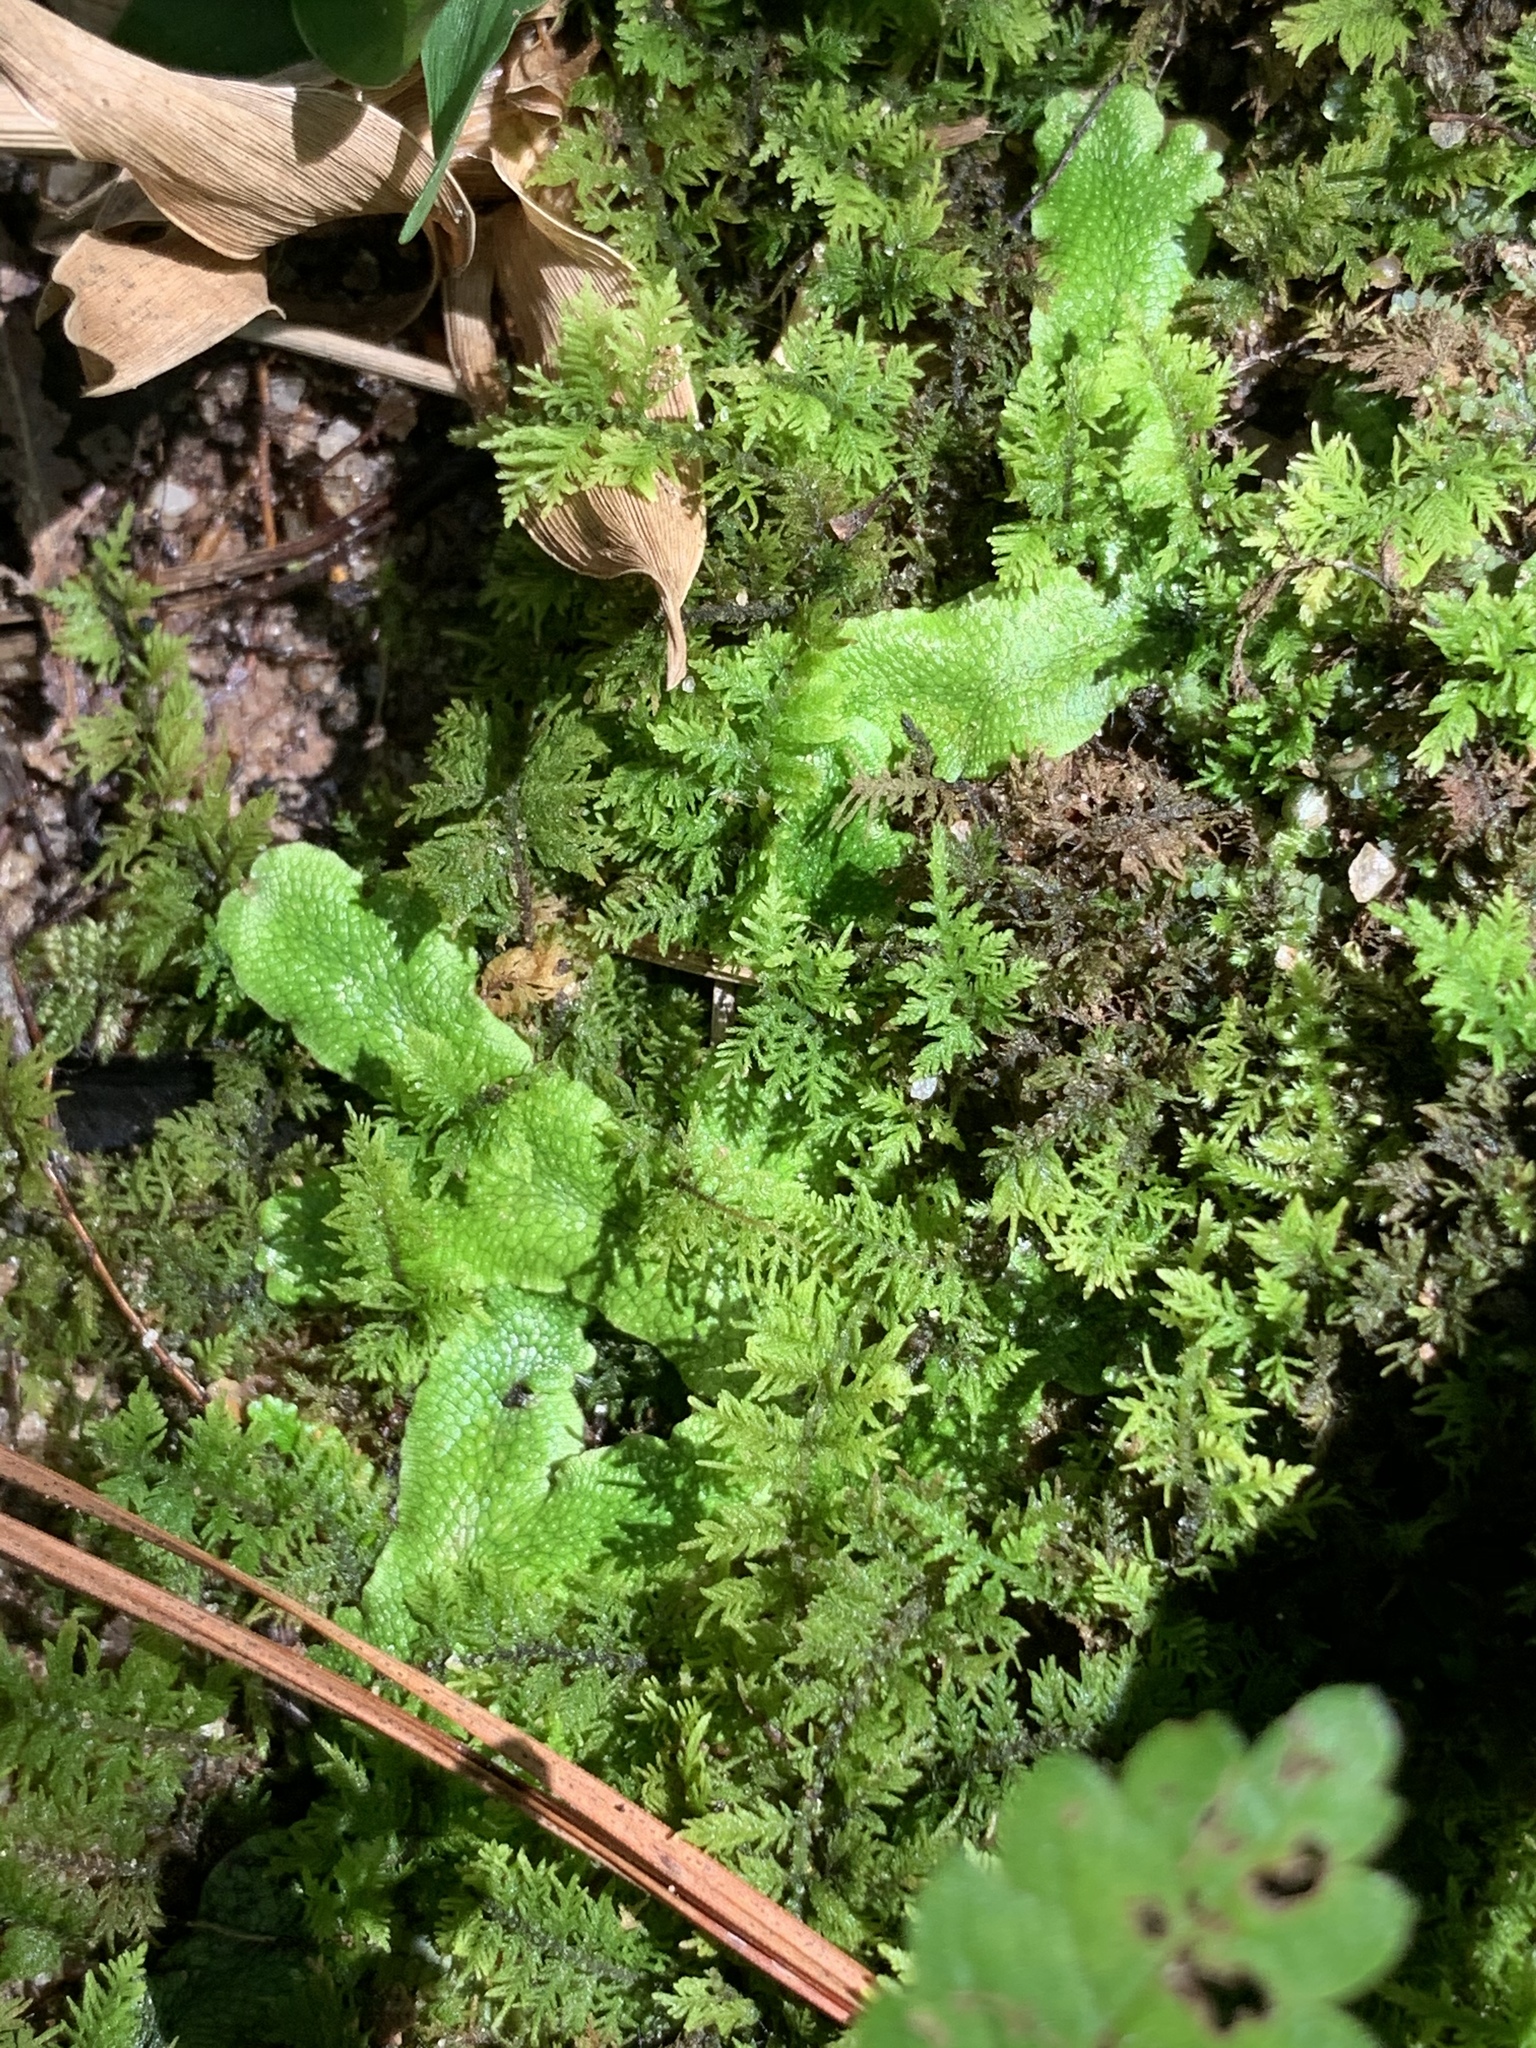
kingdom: Plantae
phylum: Marchantiophyta
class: Marchantiopsida
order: Marchantiales
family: Conocephalaceae
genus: Conocephalum
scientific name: Conocephalum salebrosum
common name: Cat-tongue liverwort
